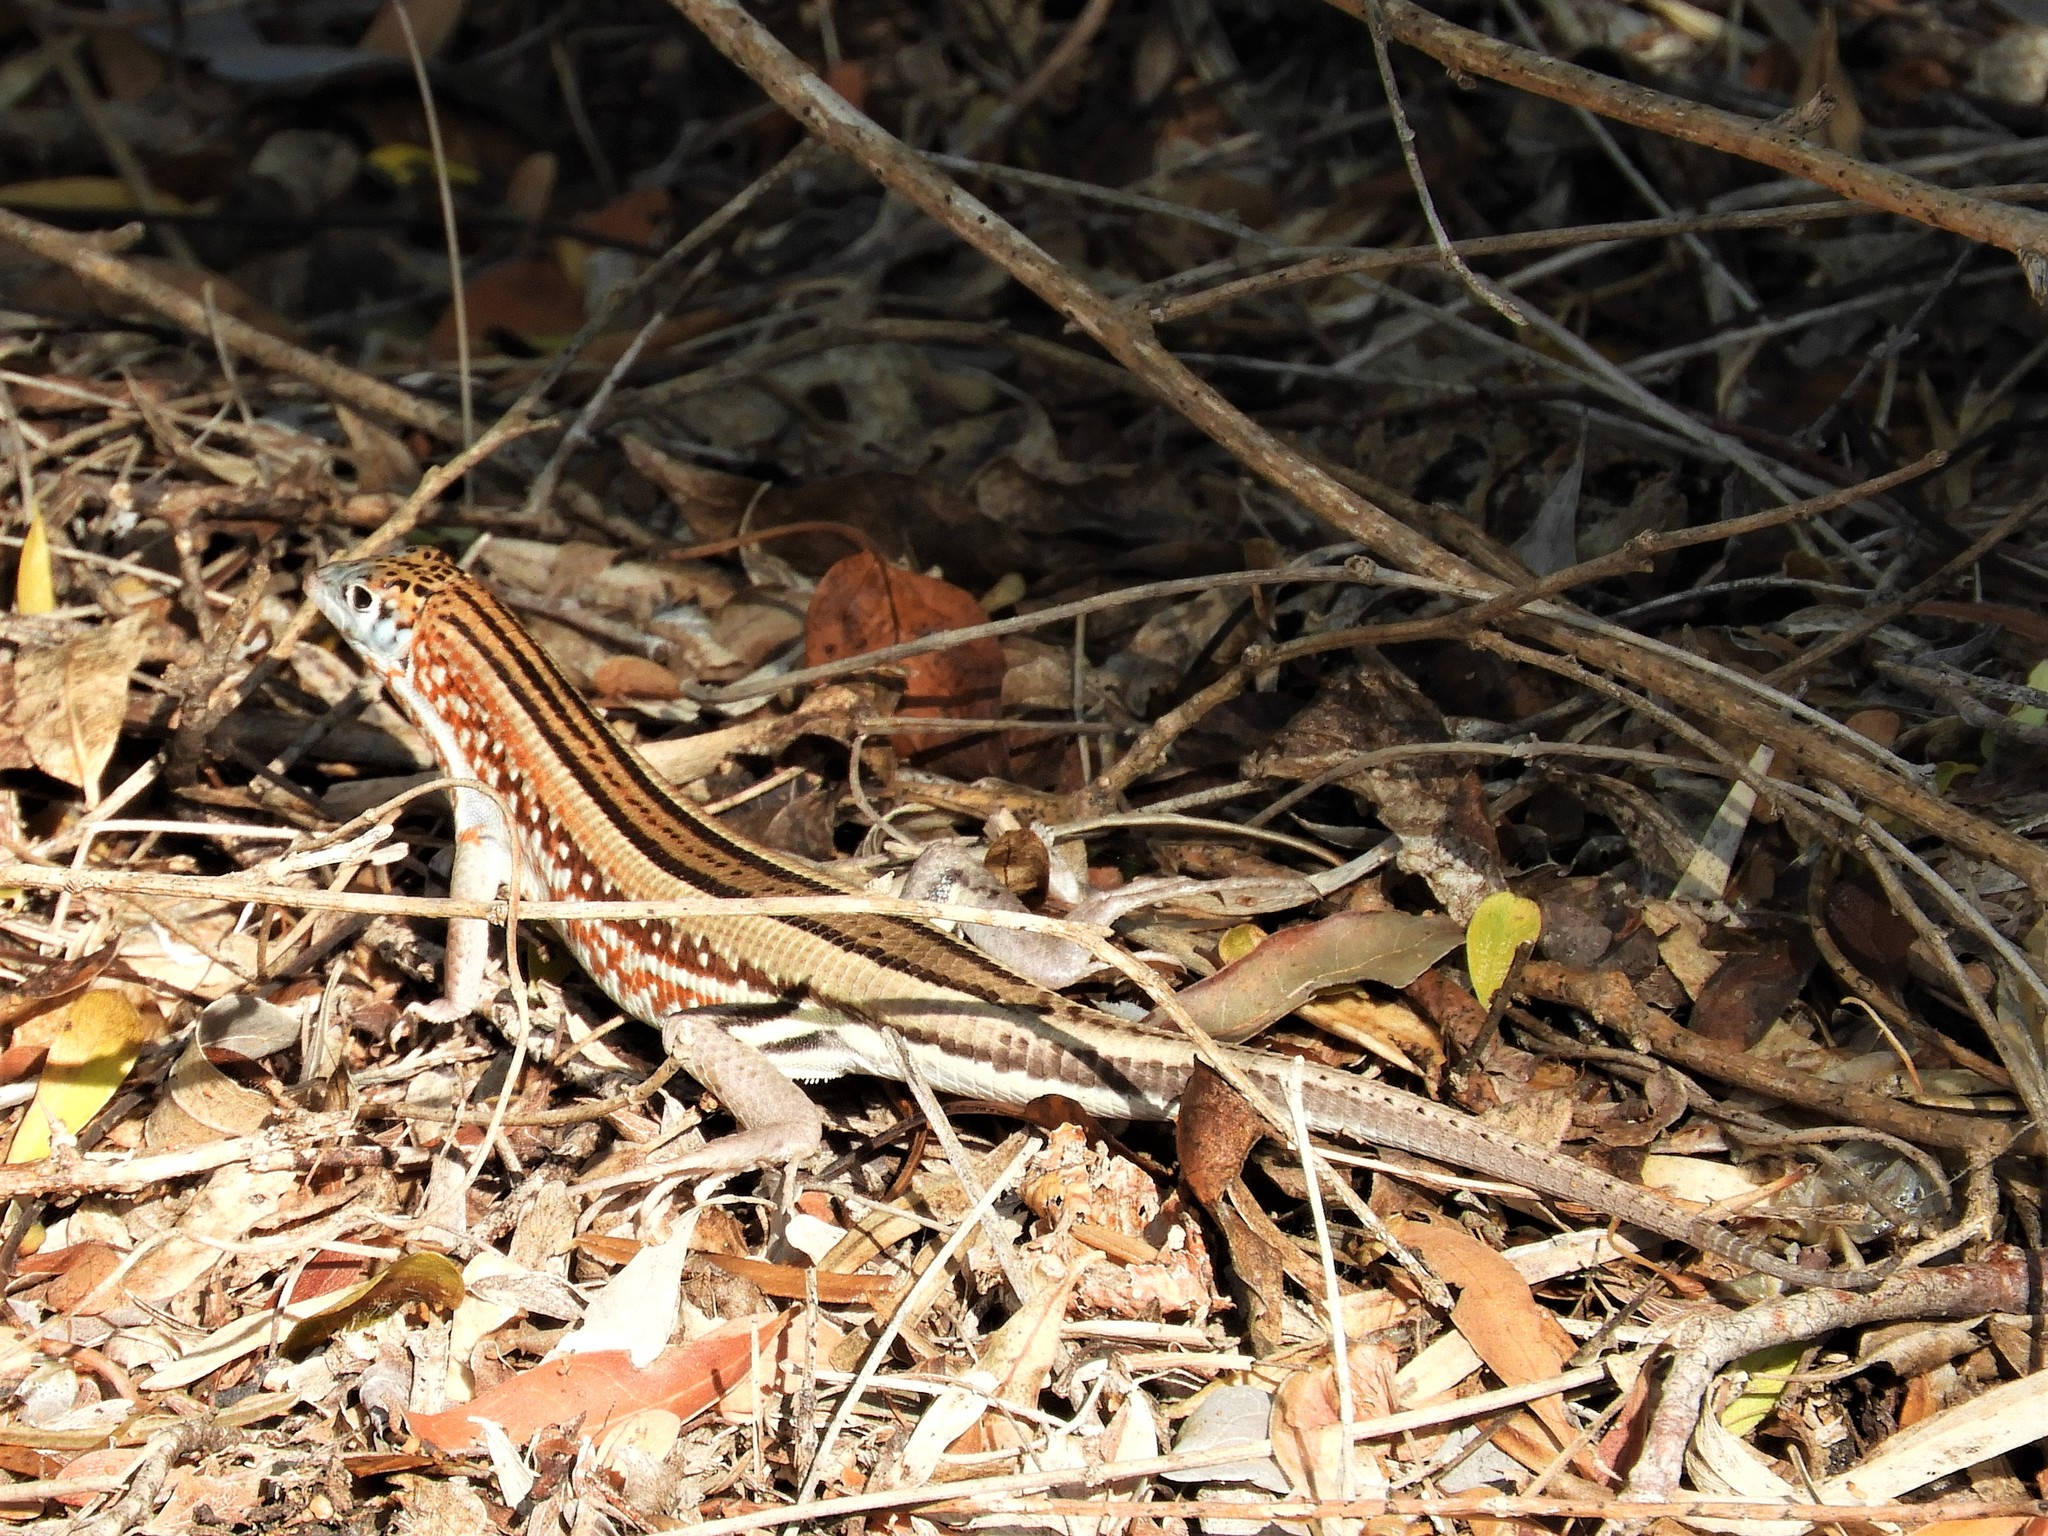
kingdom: Animalia
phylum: Chordata
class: Squamata
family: Gerrhosauridae
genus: Tracheloptychus
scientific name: Tracheloptychus petersi
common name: Peters' keeled cordylid
